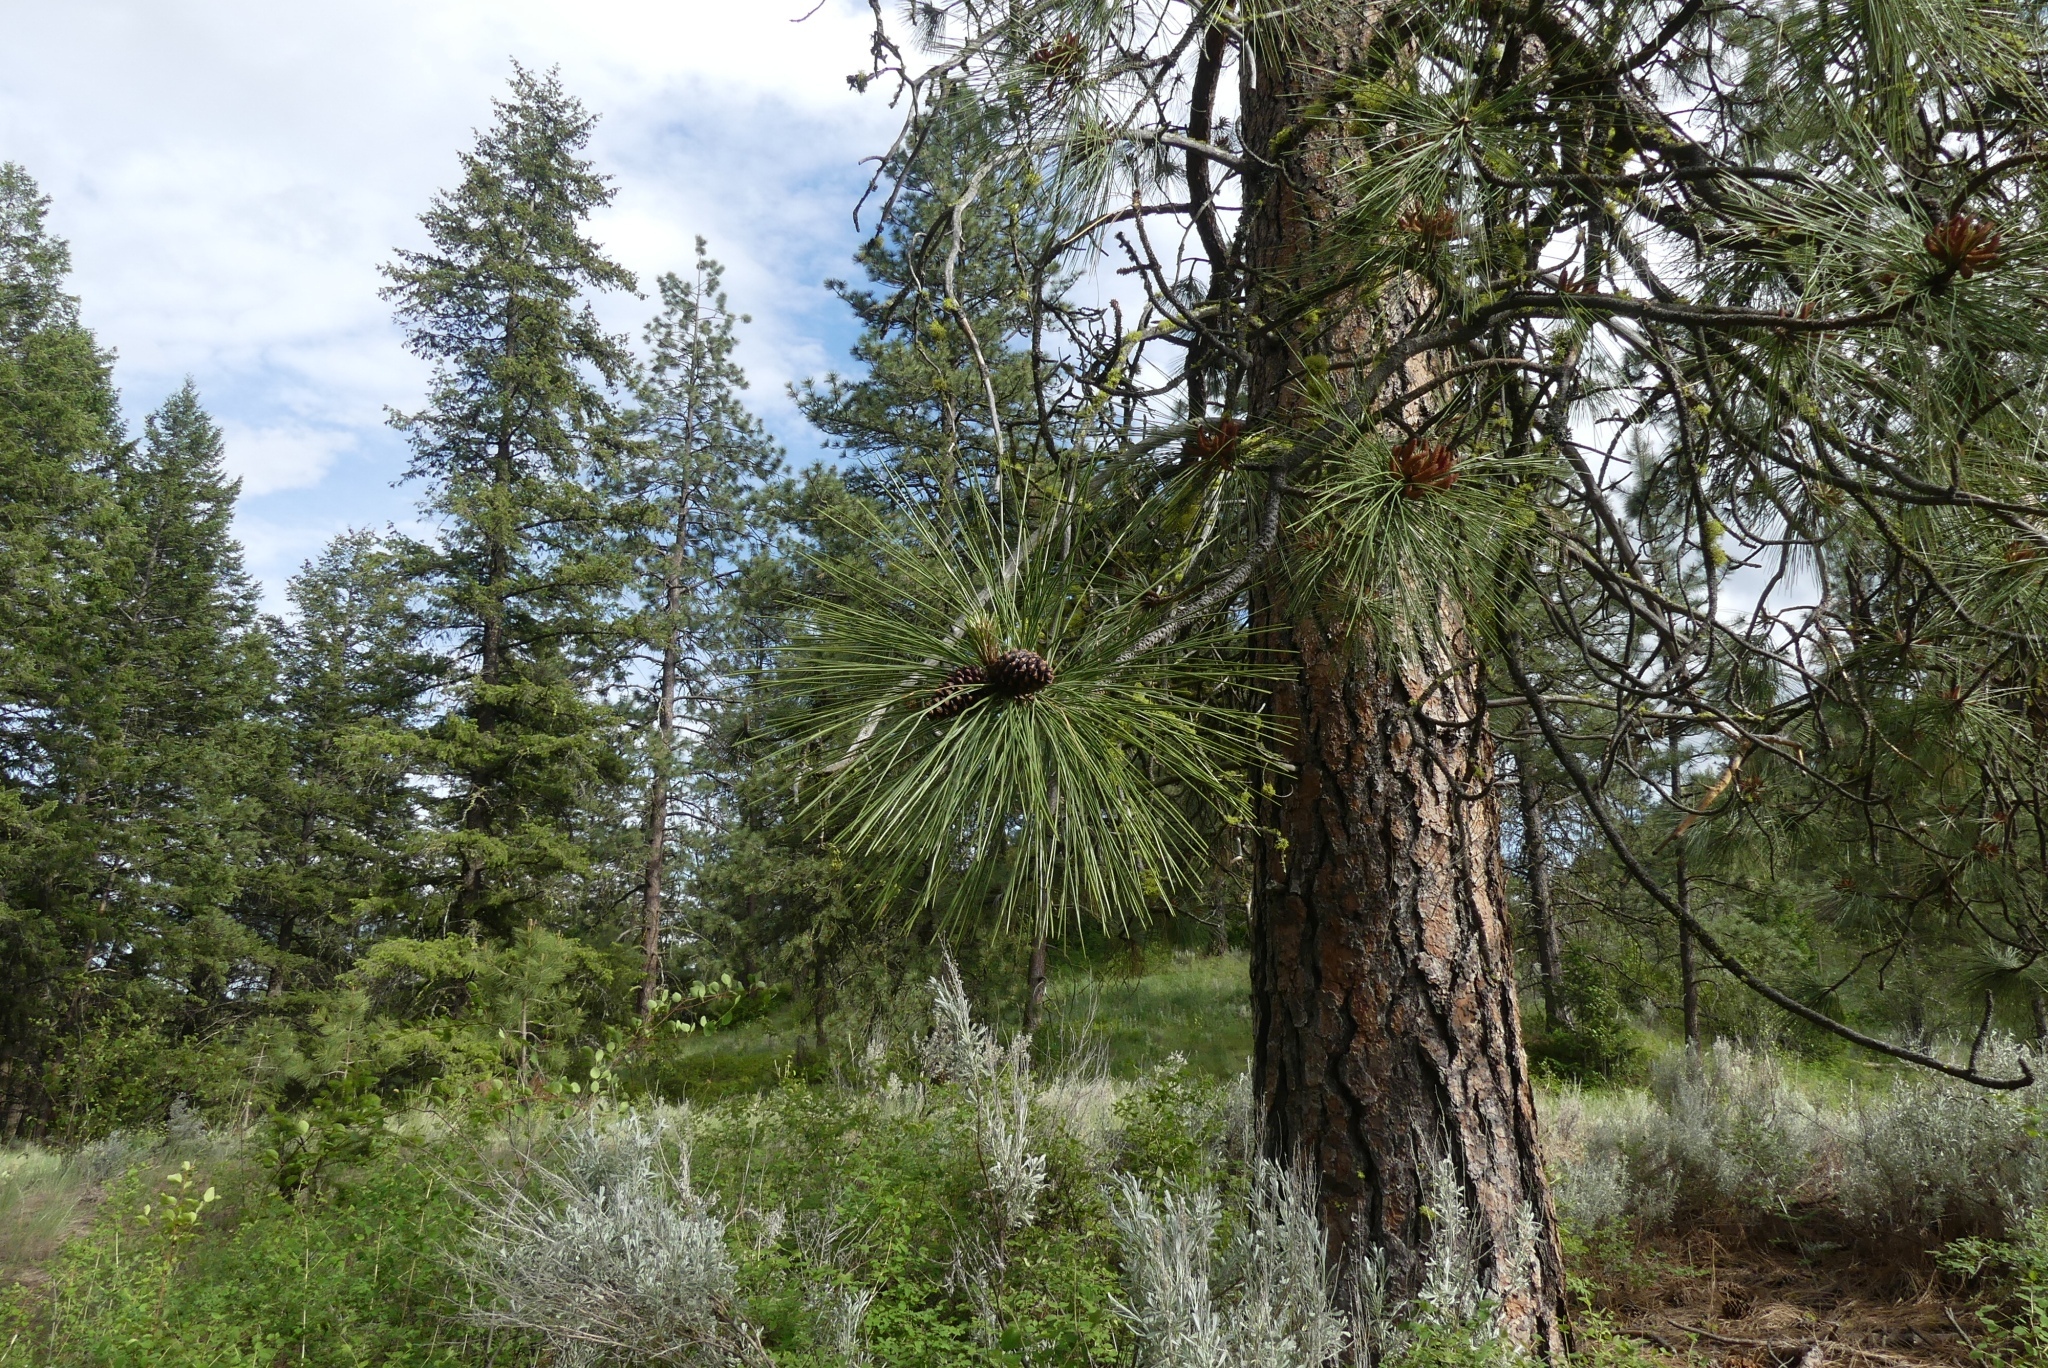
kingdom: Plantae
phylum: Tracheophyta
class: Pinopsida
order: Pinales
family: Pinaceae
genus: Pinus
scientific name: Pinus ponderosa
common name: Western yellow-pine
